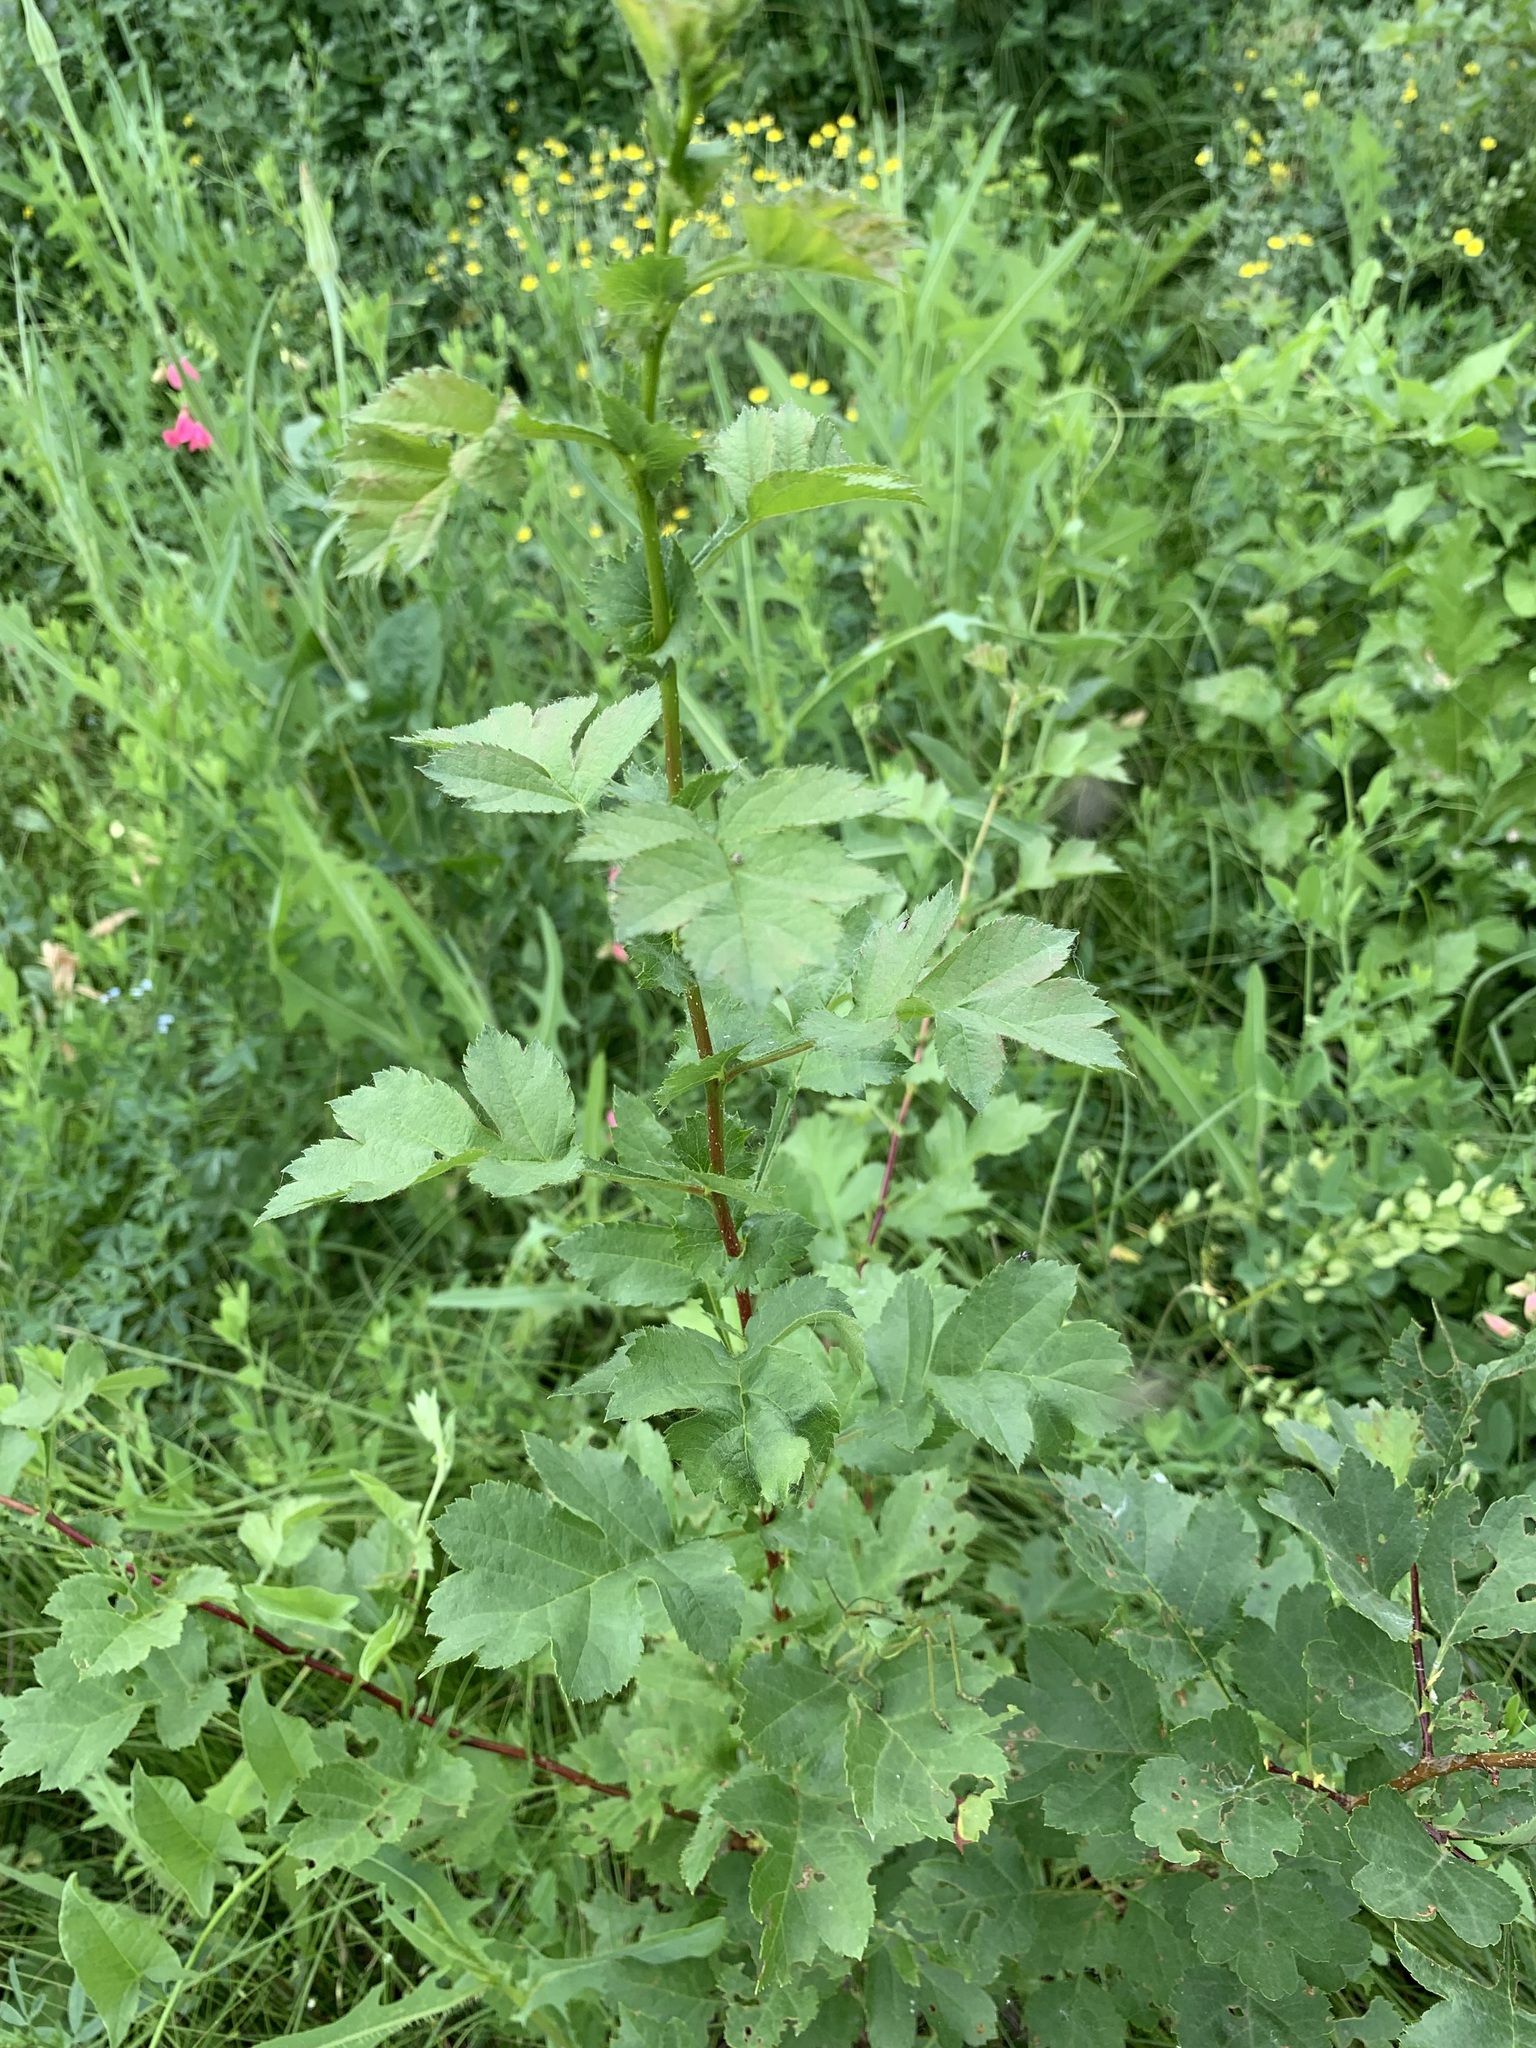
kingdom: Plantae
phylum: Tracheophyta
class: Magnoliopsida
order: Rosales
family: Rosaceae
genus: Crataegus
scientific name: Crataegus sanguinea
